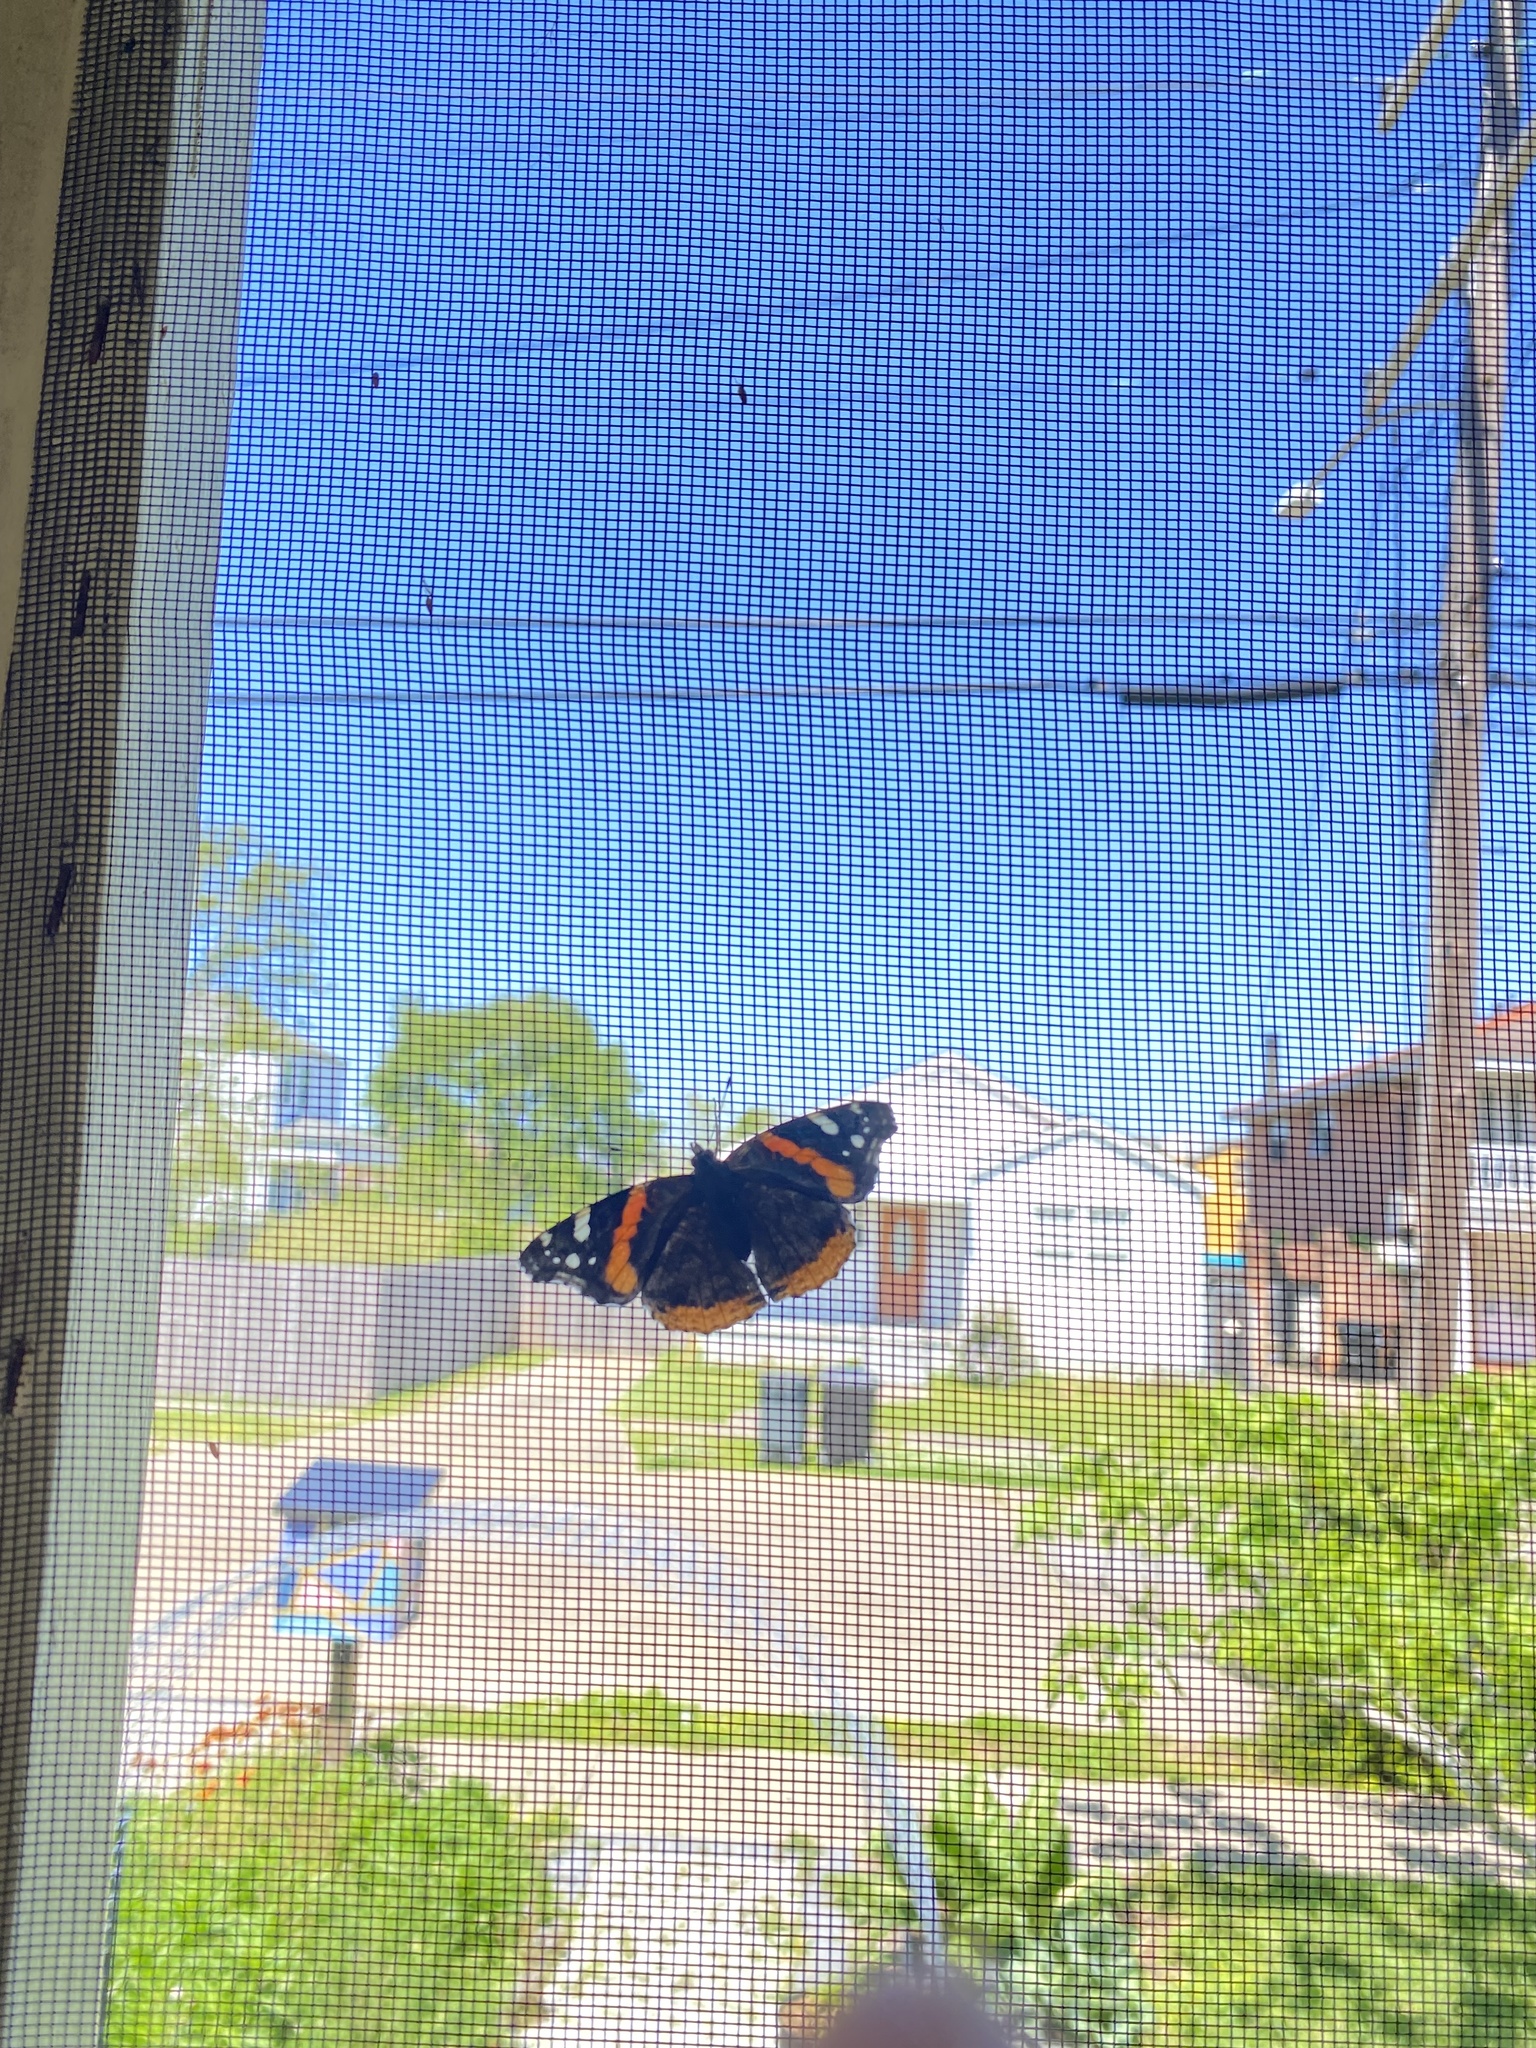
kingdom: Animalia
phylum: Arthropoda
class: Insecta
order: Lepidoptera
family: Nymphalidae
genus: Vanessa
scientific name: Vanessa atalanta
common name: Red admiral
